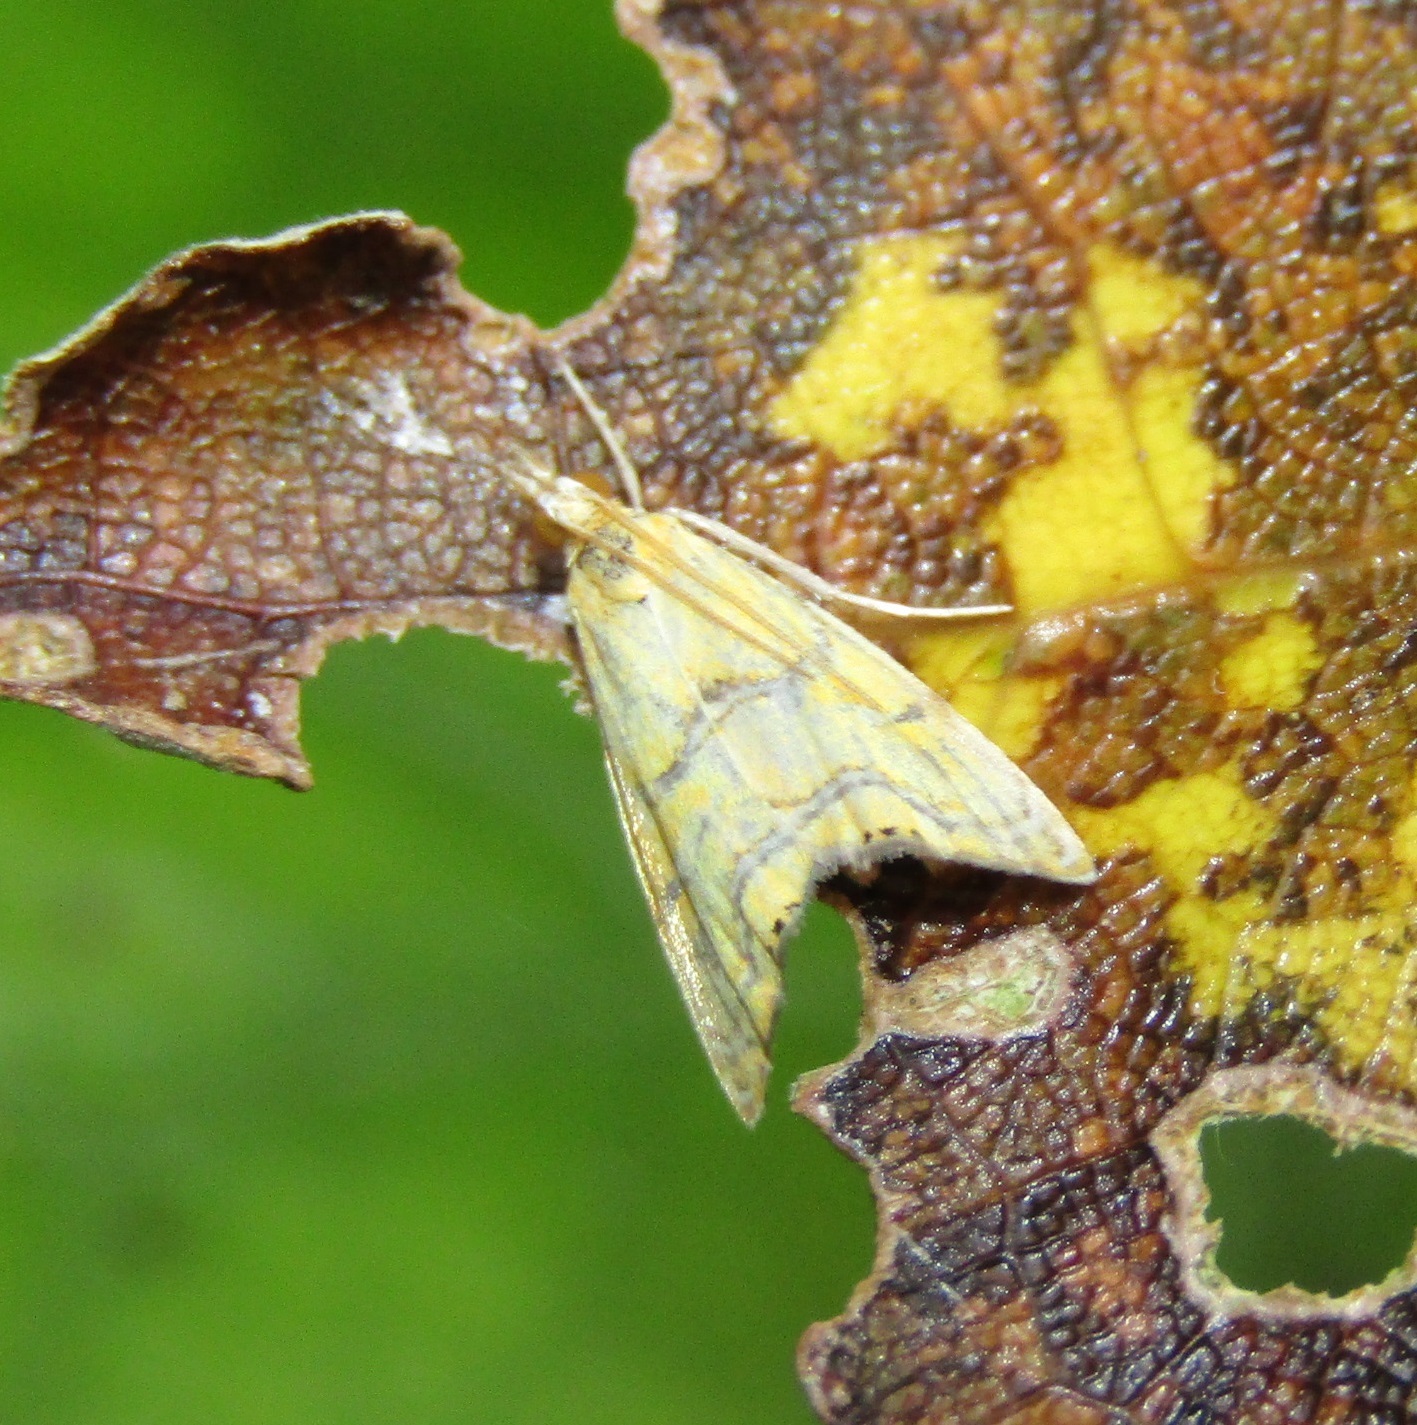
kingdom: Animalia
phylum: Arthropoda
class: Insecta
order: Lepidoptera
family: Crambidae
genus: Glaucocharis
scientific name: Glaucocharis auriscriptella
